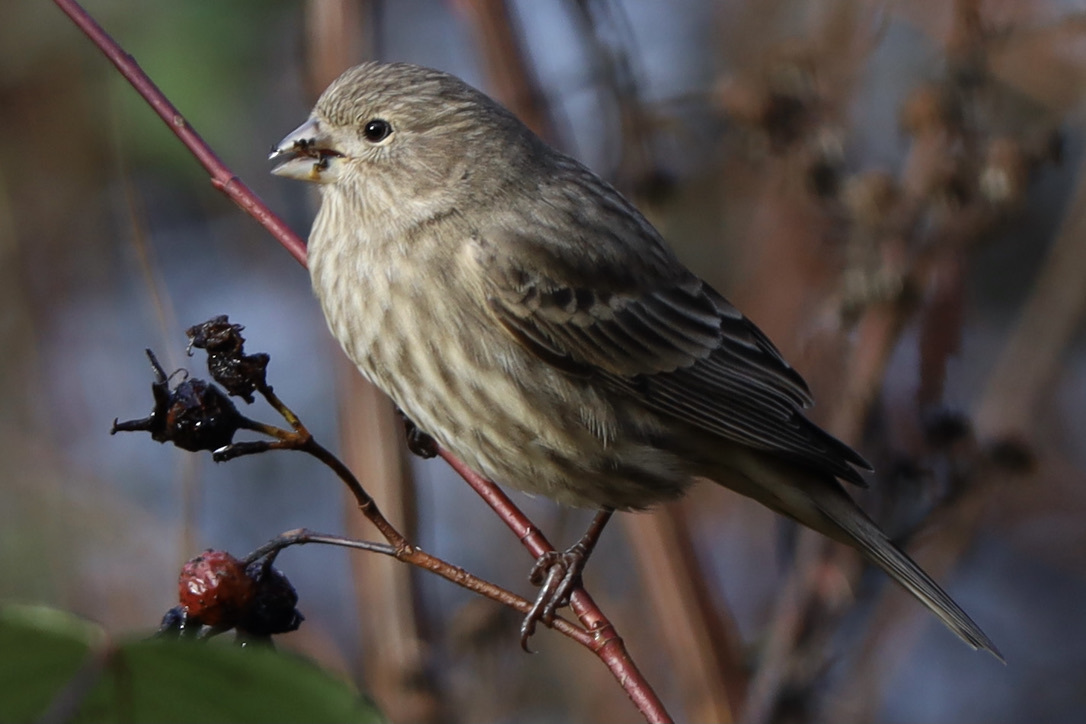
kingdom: Animalia
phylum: Chordata
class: Aves
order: Passeriformes
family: Fringillidae
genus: Haemorhous
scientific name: Haemorhous mexicanus
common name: House finch
